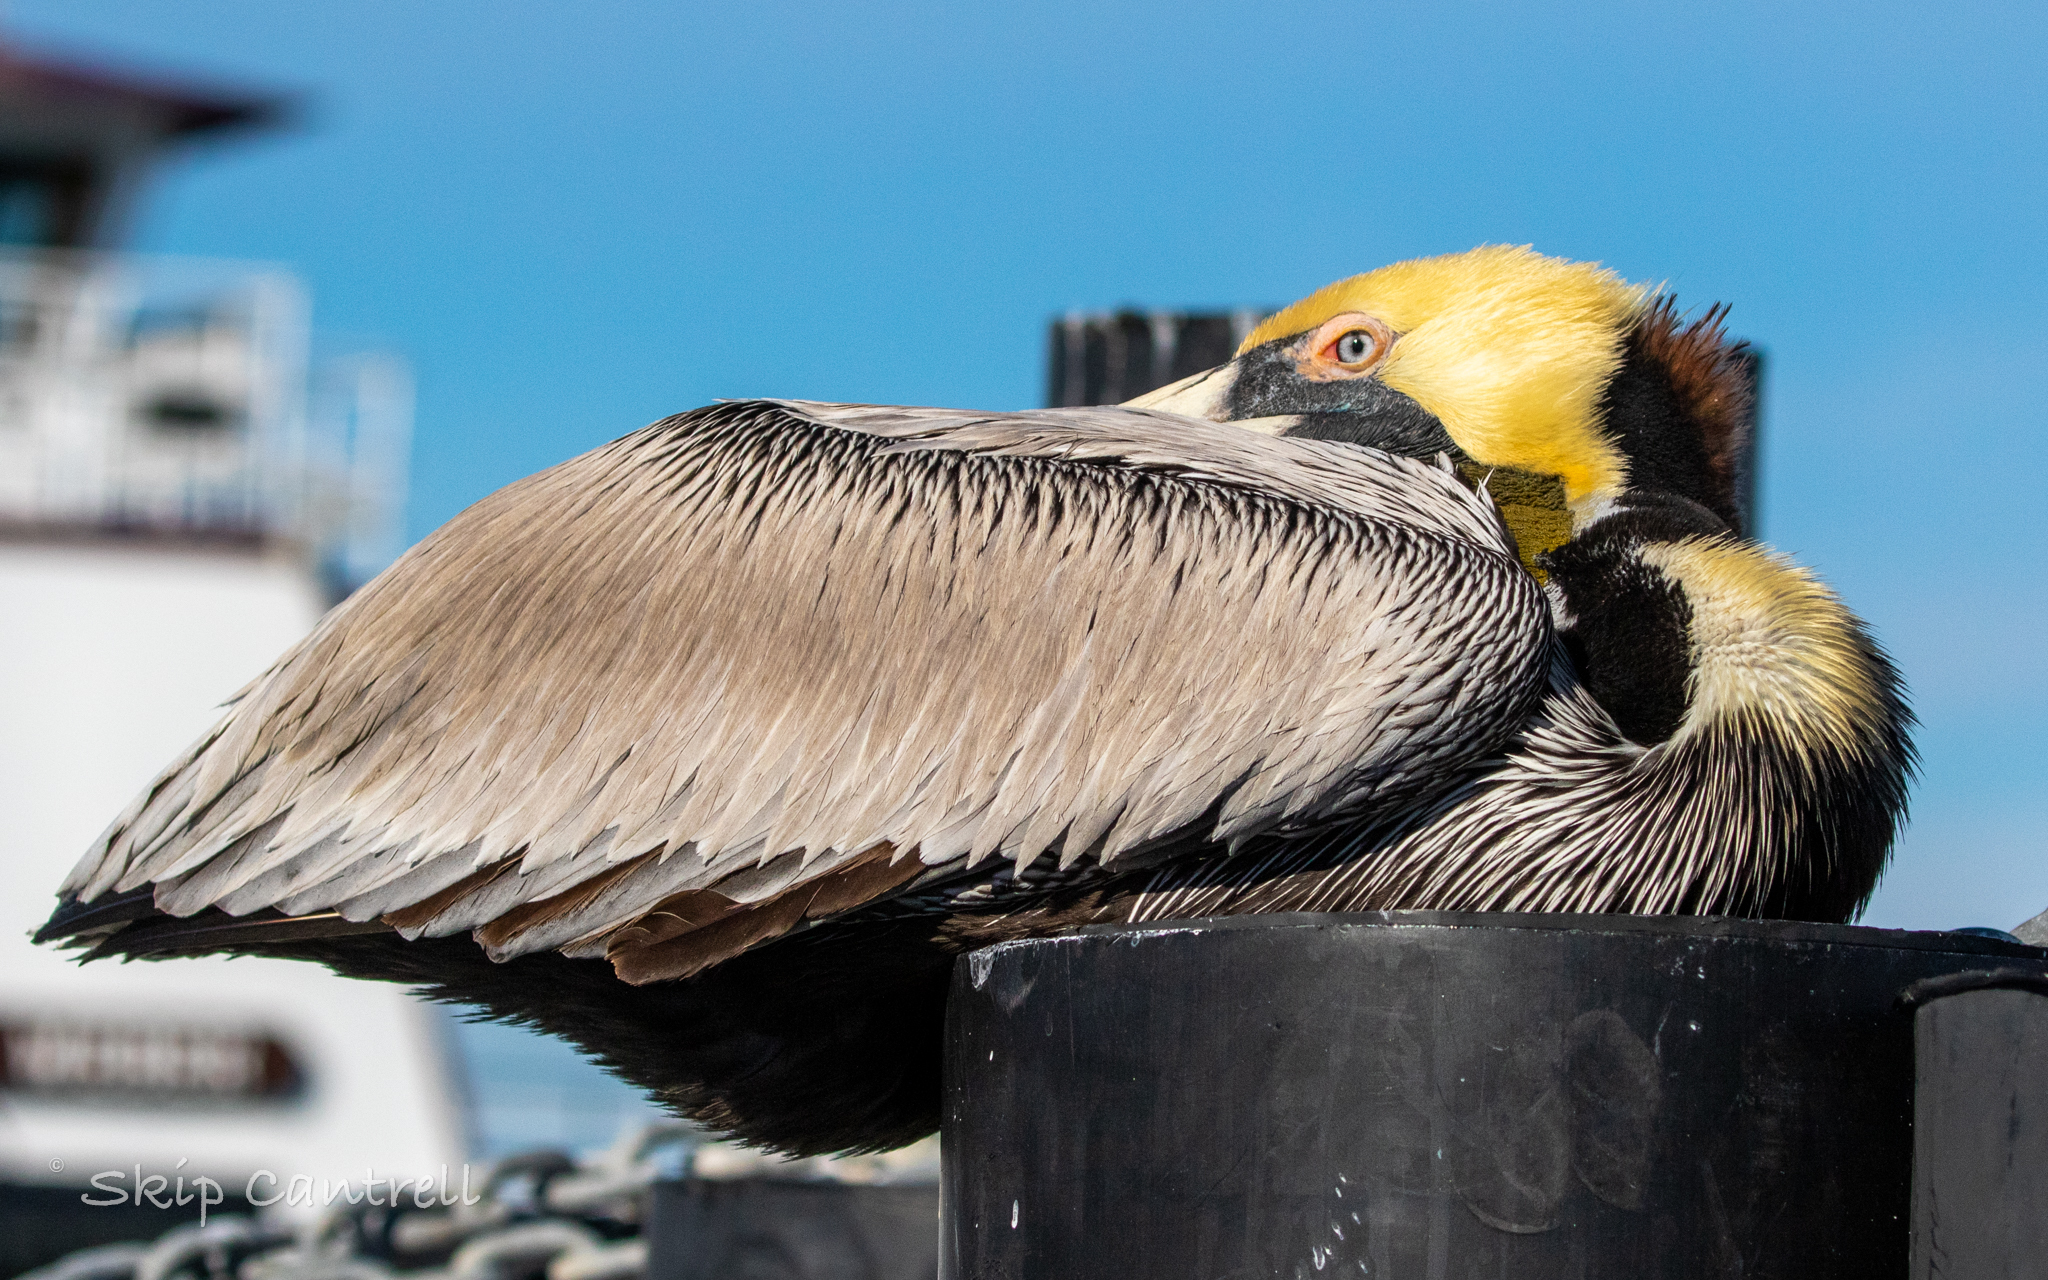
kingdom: Animalia
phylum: Chordata
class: Aves
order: Pelecaniformes
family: Pelecanidae
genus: Pelecanus
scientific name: Pelecanus occidentalis
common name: Brown pelican
